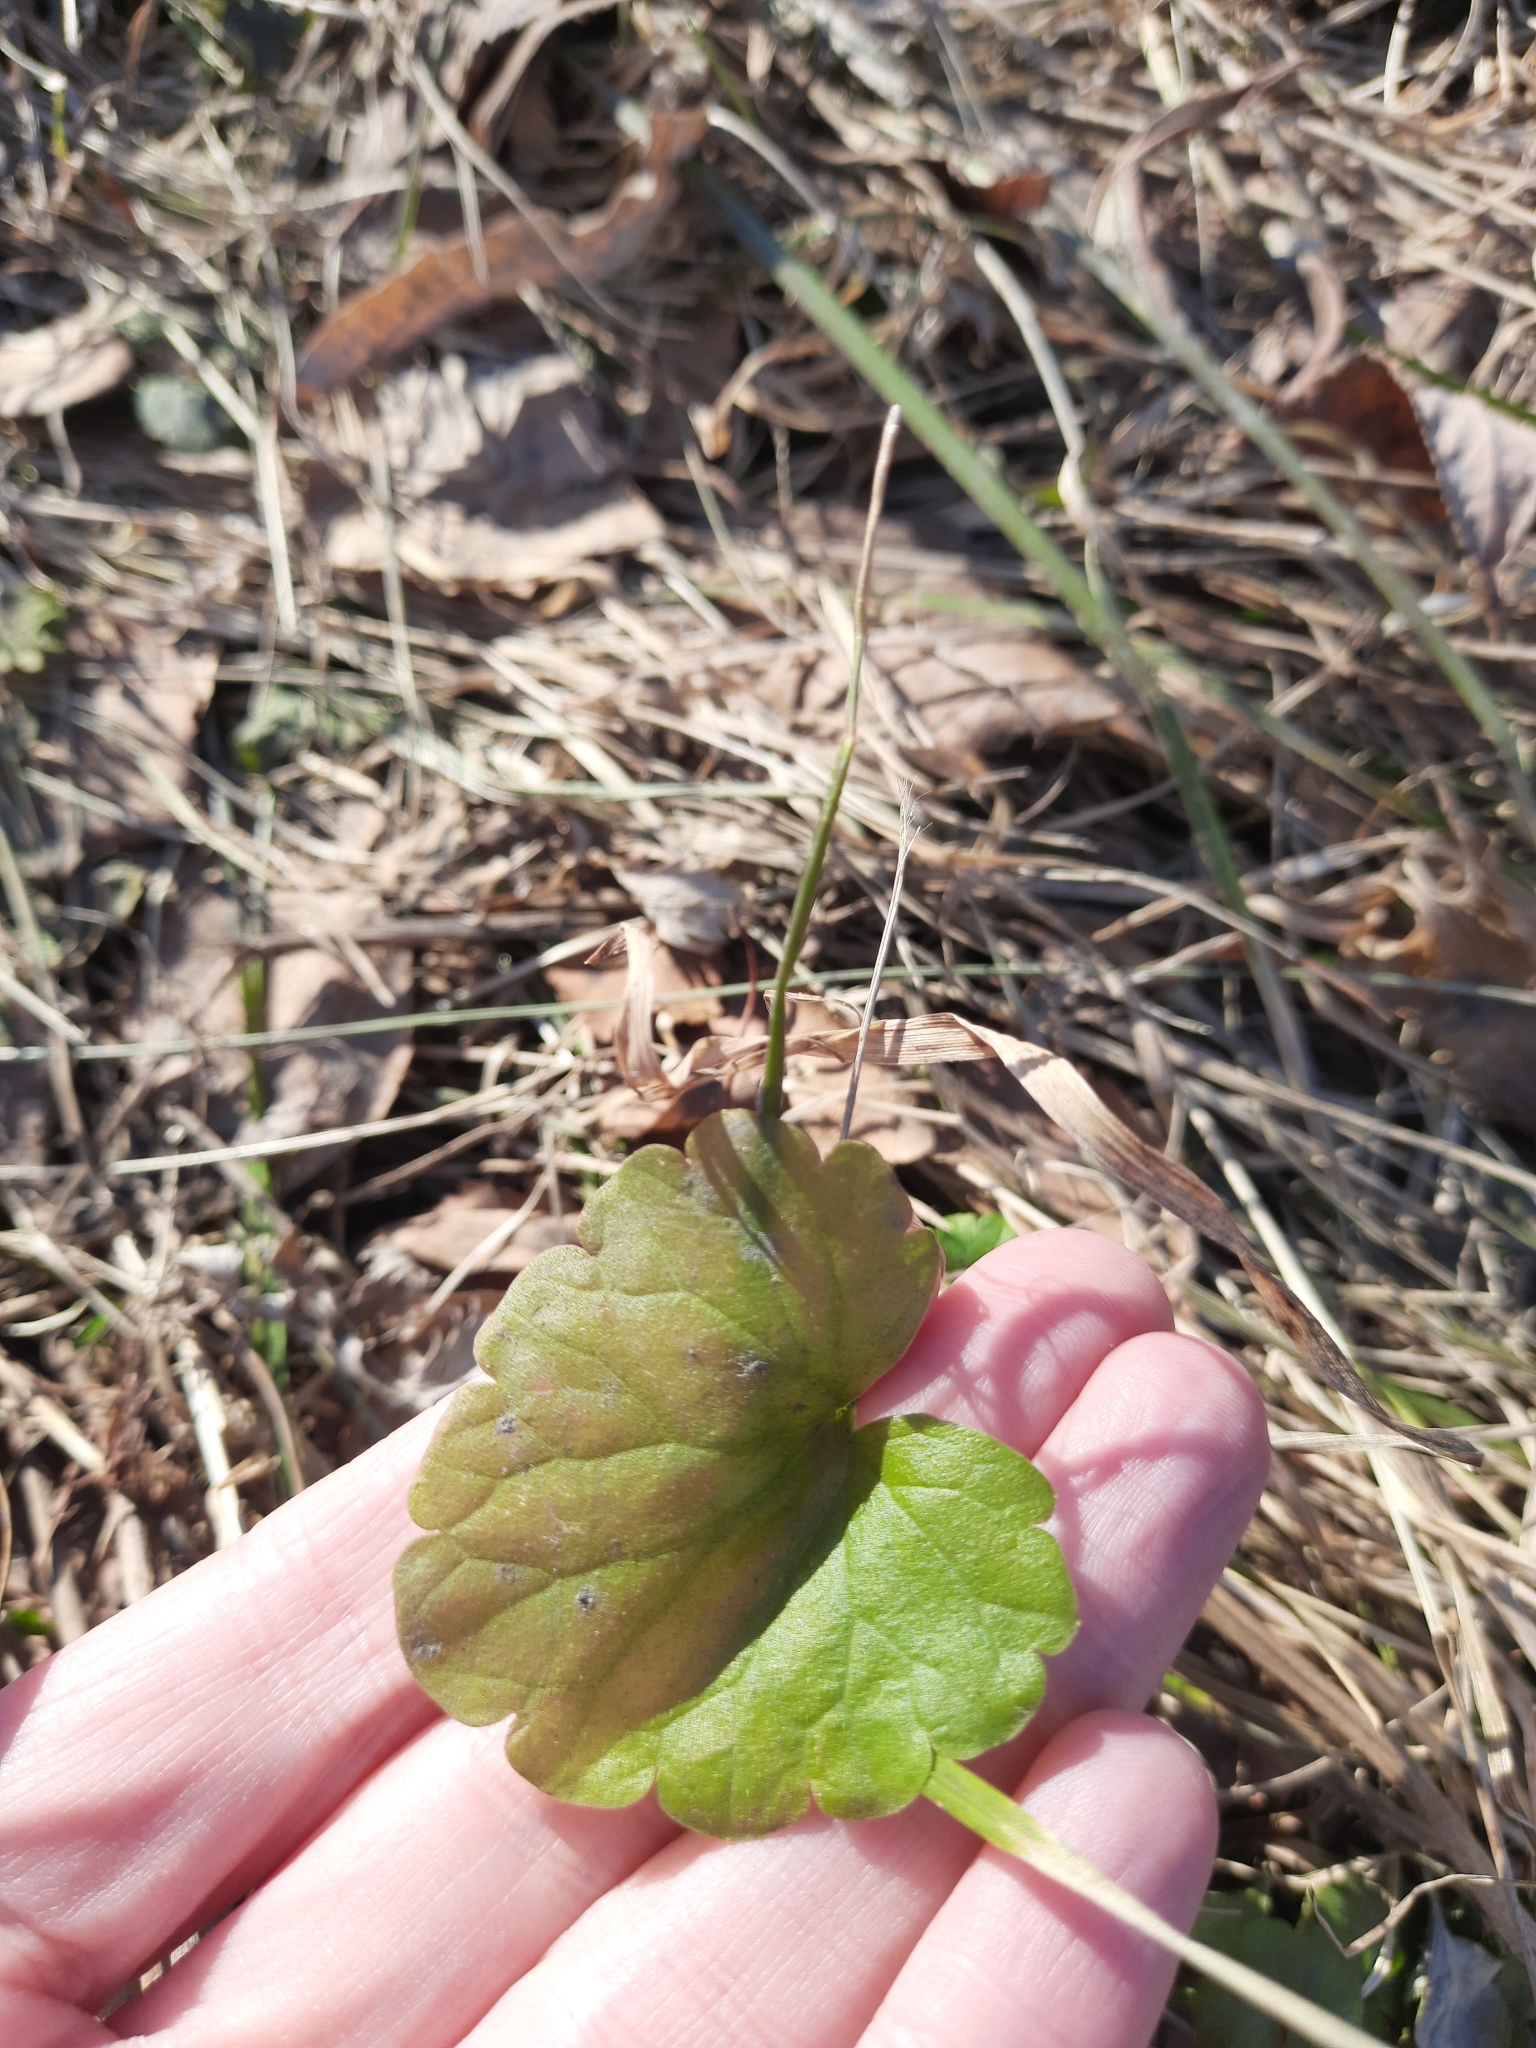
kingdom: Plantae
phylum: Tracheophyta
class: Magnoliopsida
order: Lamiales
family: Lamiaceae
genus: Glechoma
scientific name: Glechoma hederacea
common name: Ground ivy
